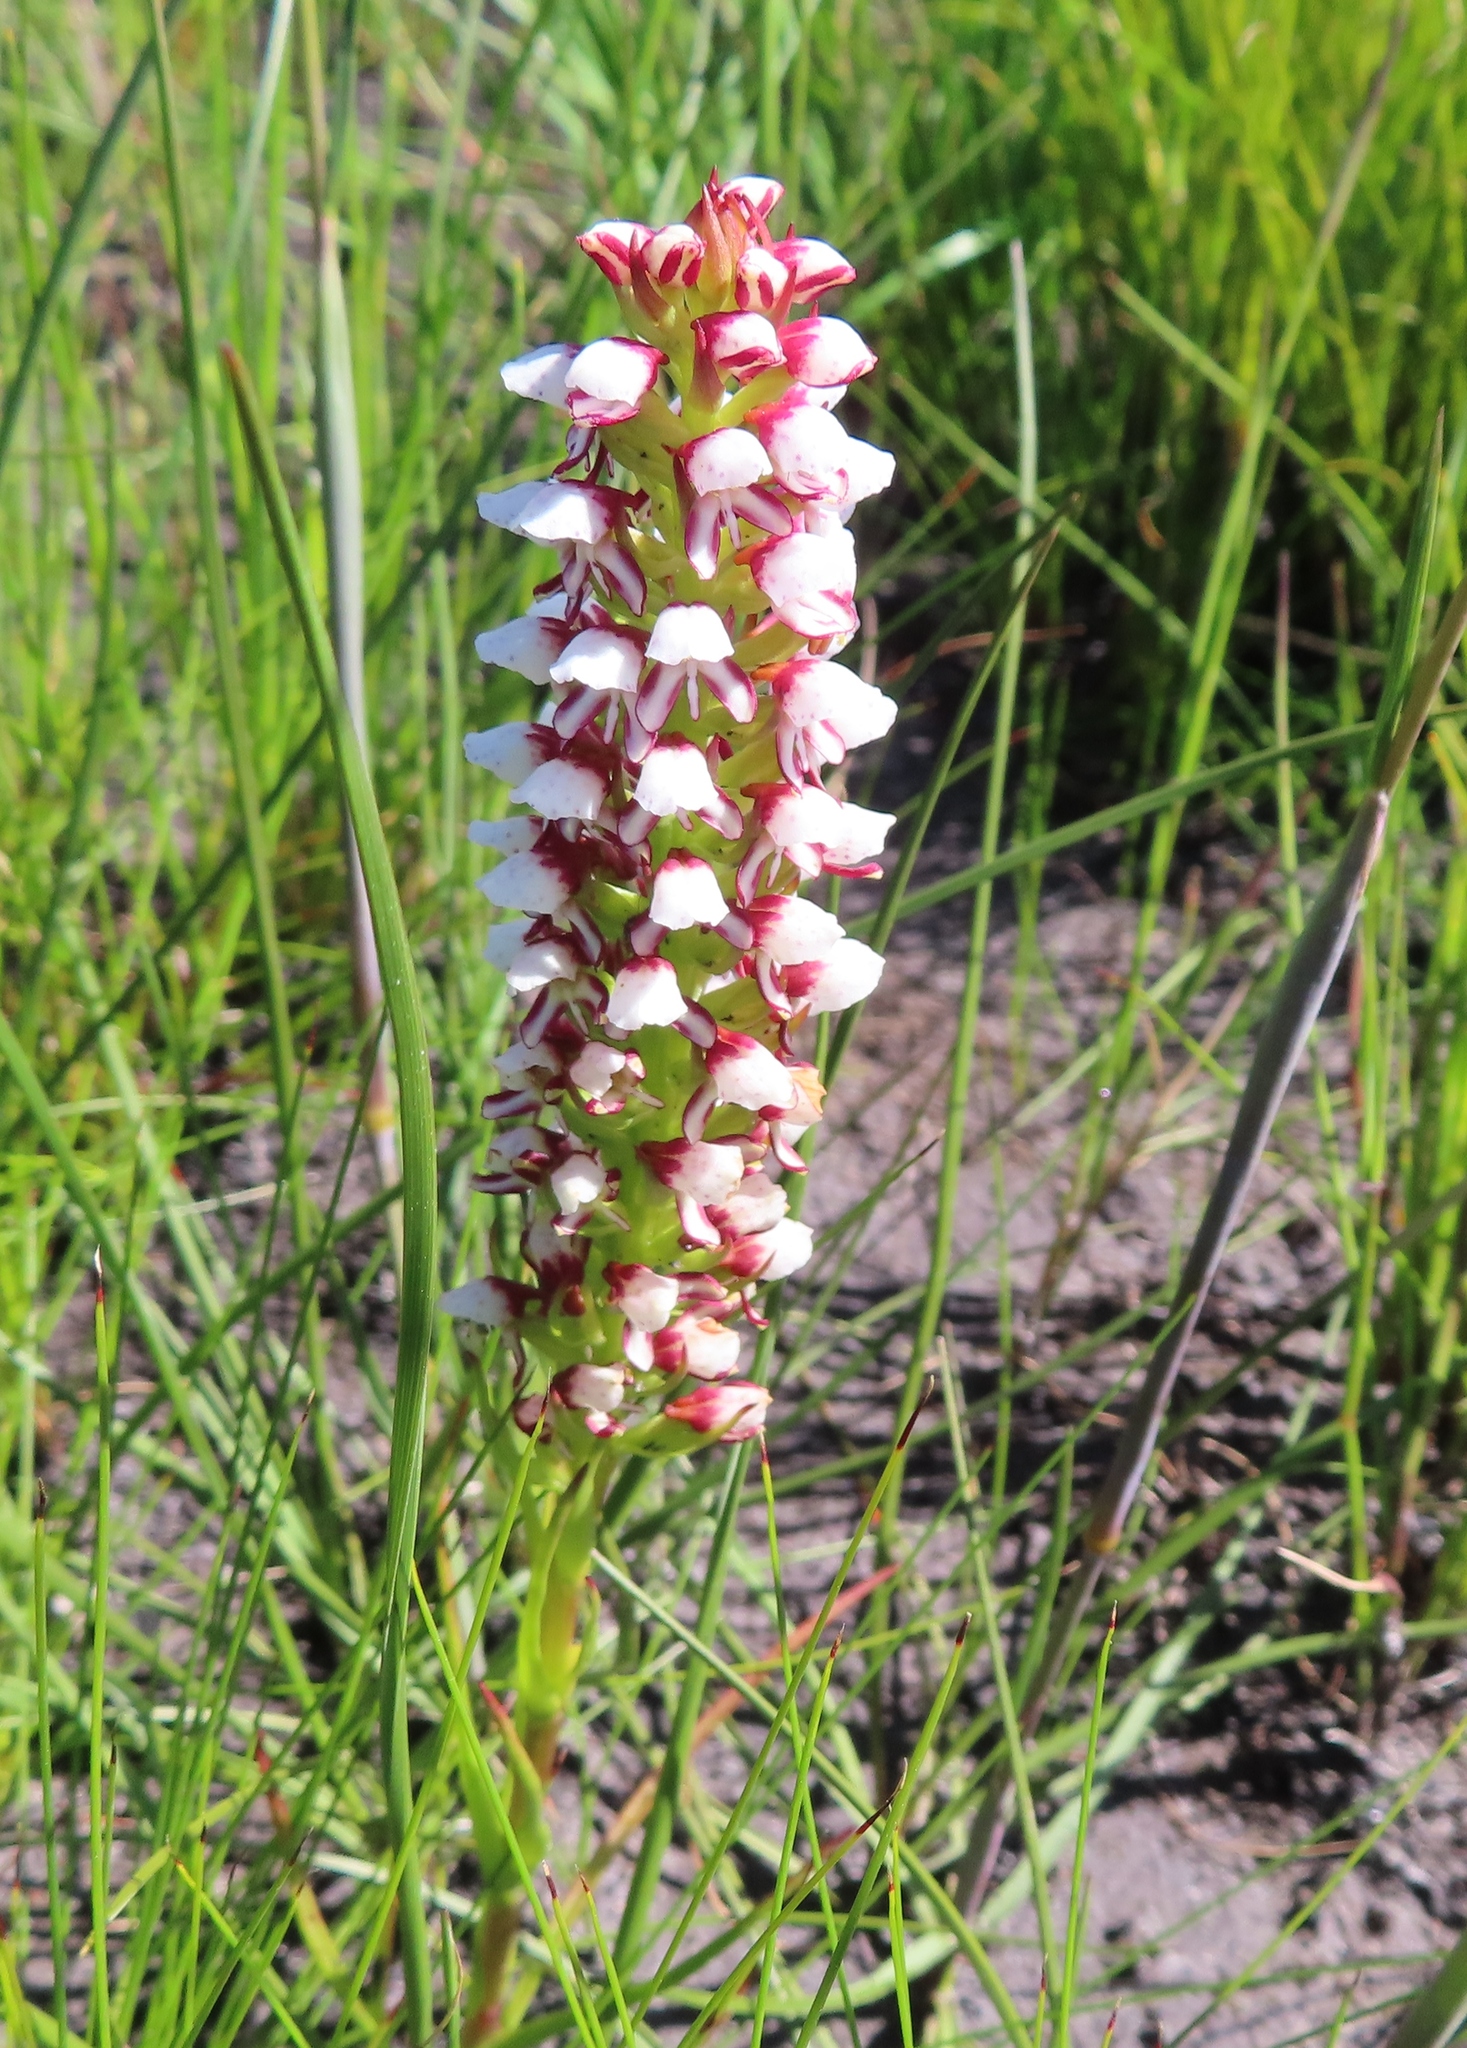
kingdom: Plantae
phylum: Tracheophyta
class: Liliopsida
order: Asparagales
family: Orchidaceae
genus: Disa
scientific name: Disa obtusa
